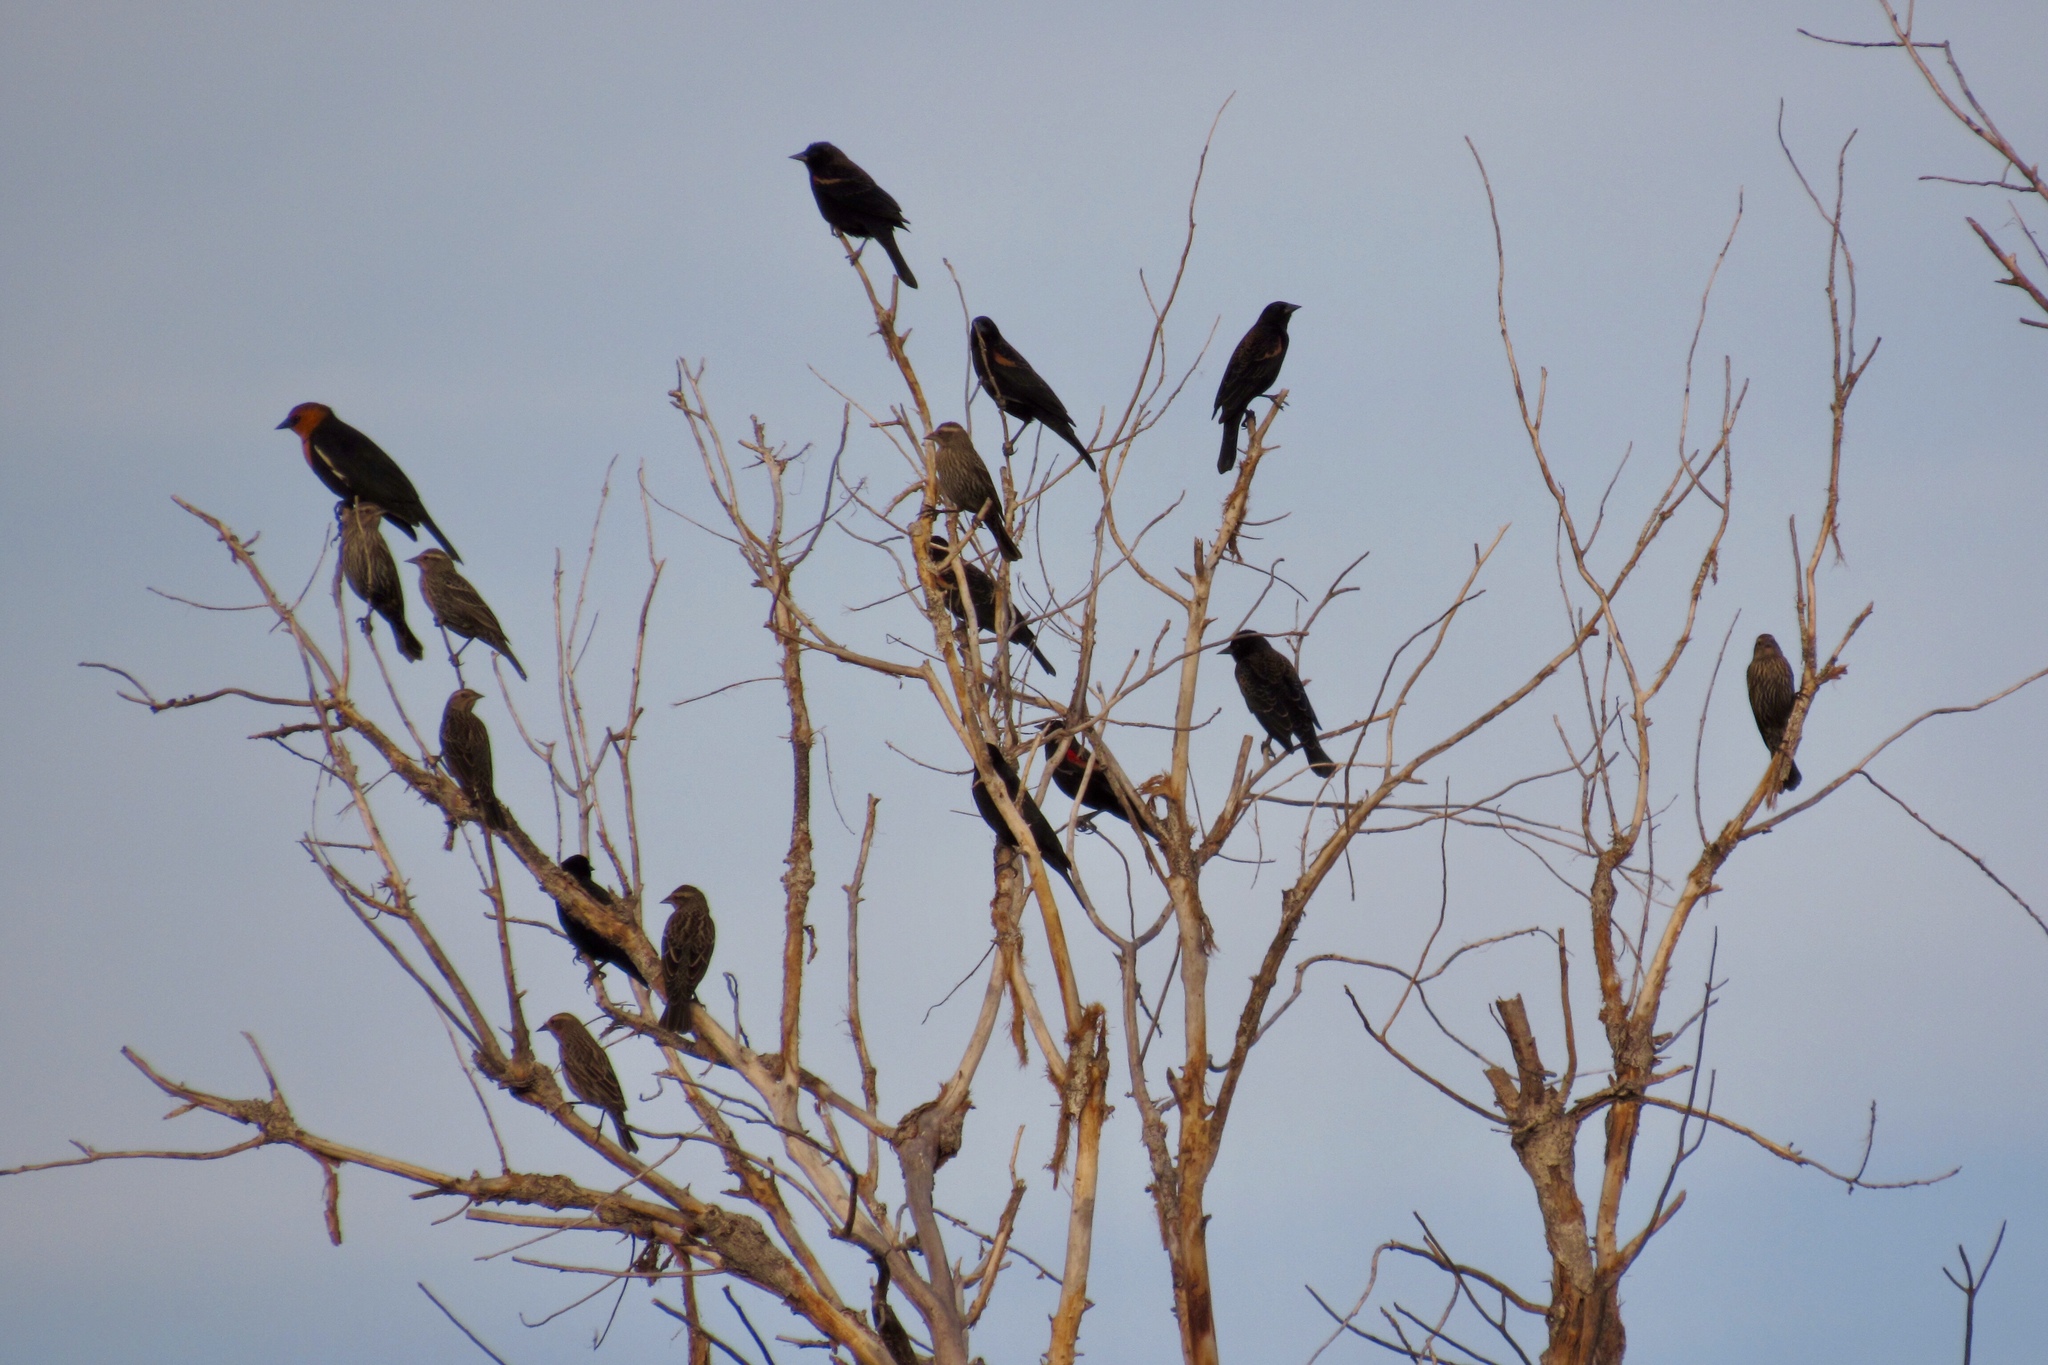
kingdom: Animalia
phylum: Chordata
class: Aves
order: Passeriformes
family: Icteridae
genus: Agelaius
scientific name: Agelaius phoeniceus
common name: Red-winged blackbird
